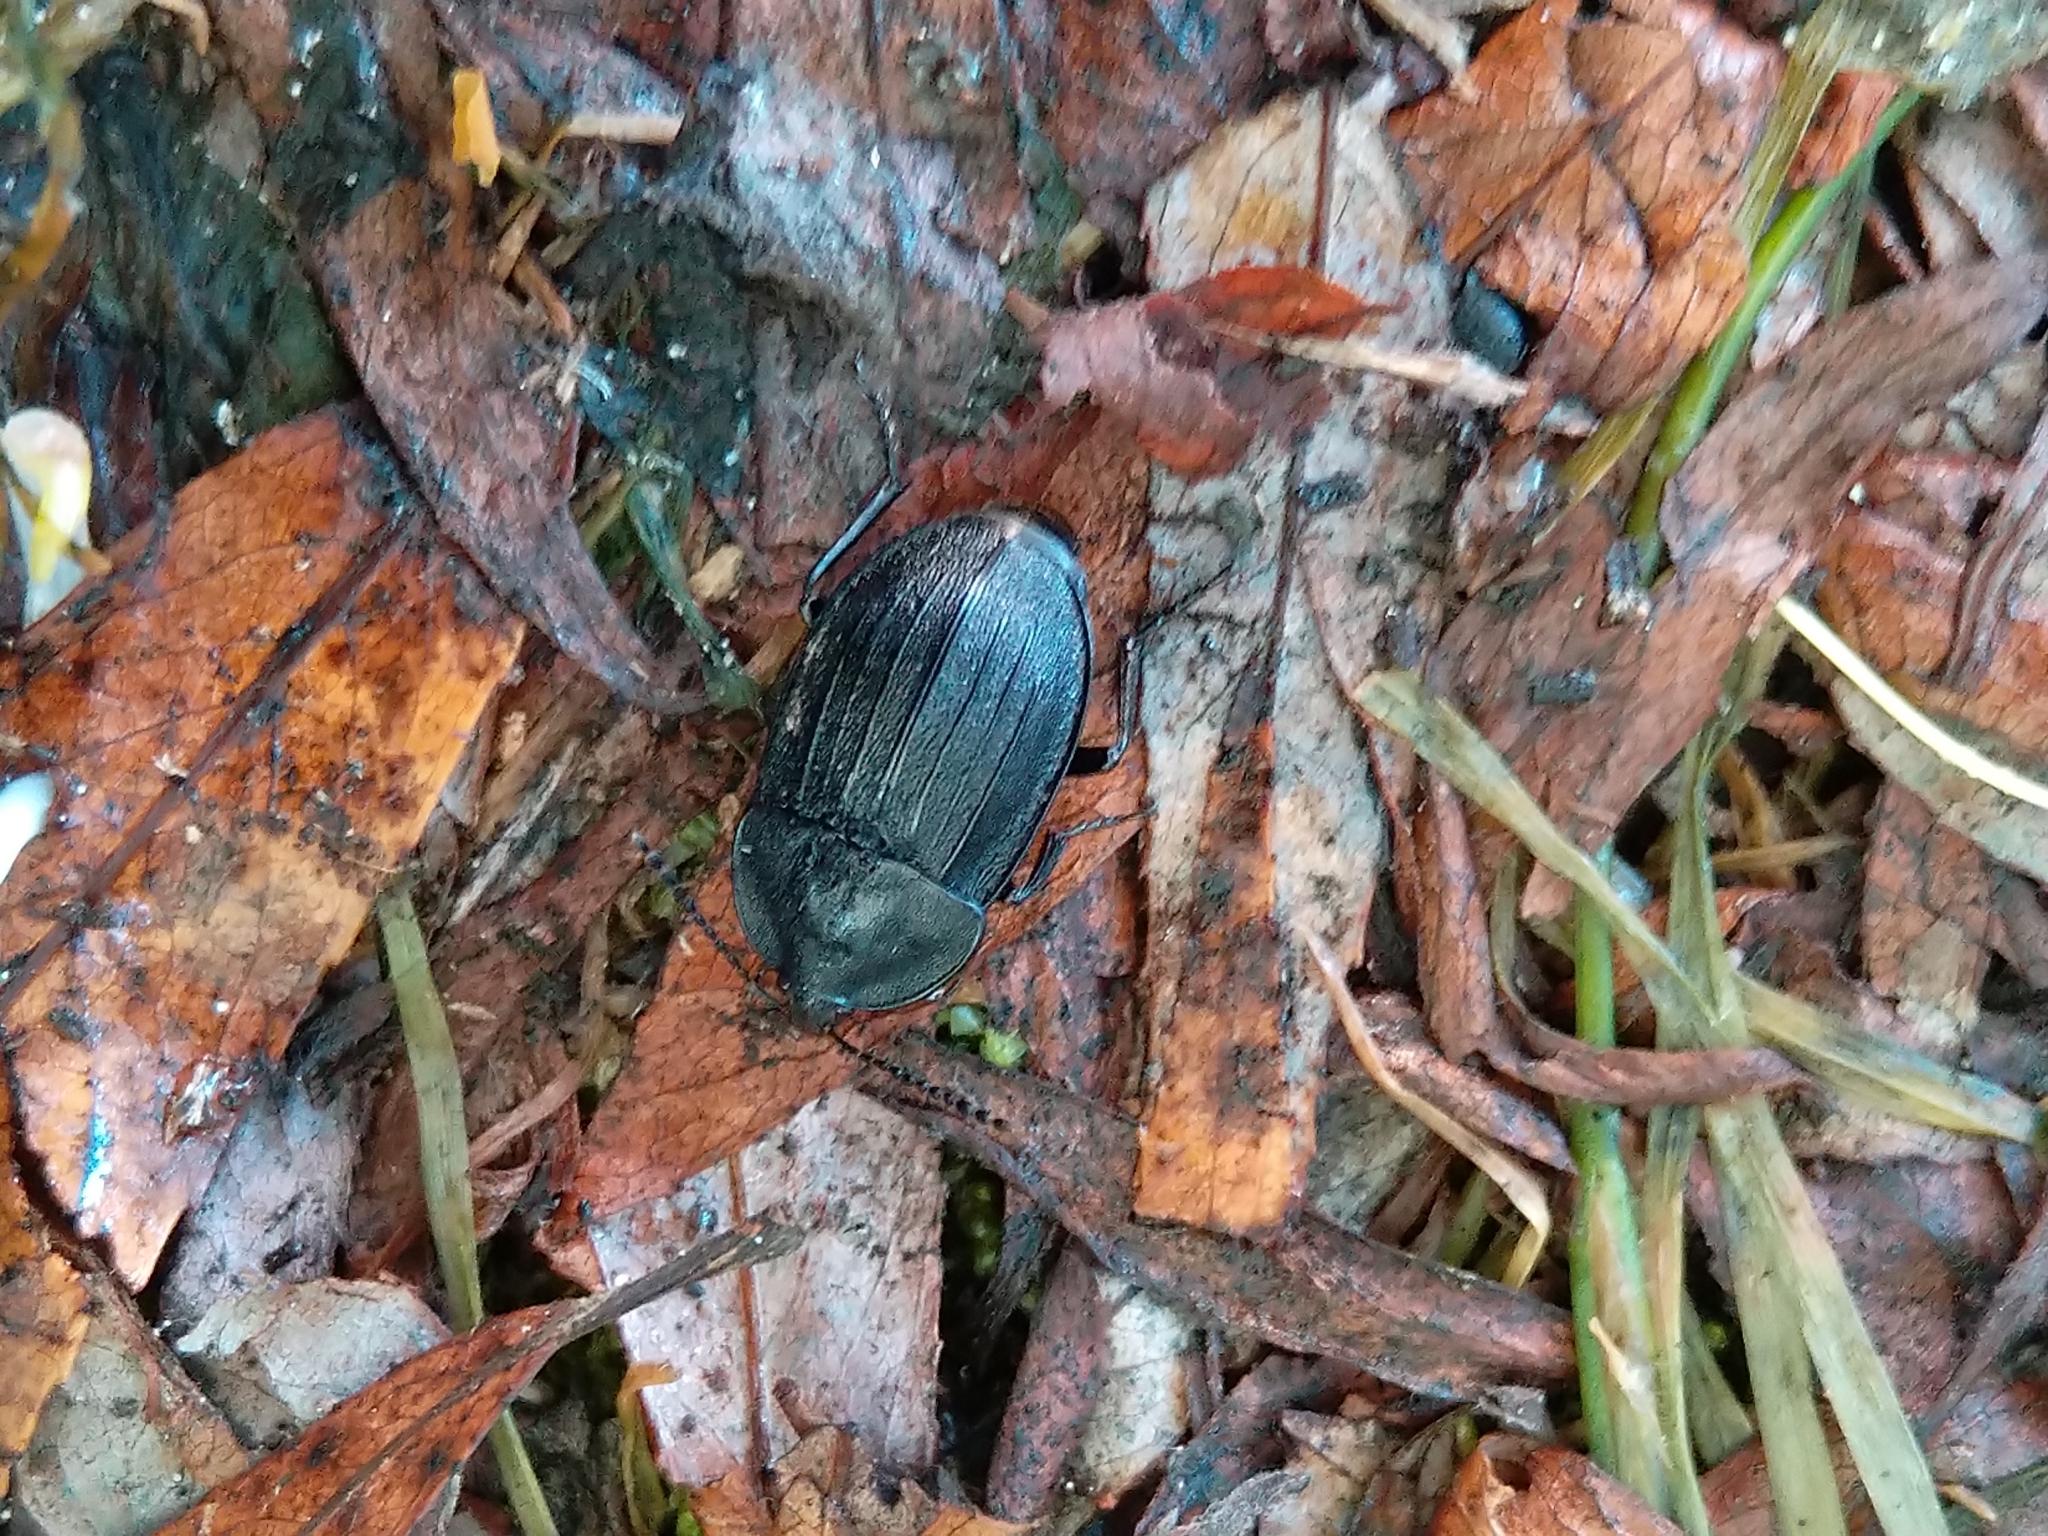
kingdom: Animalia
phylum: Arthropoda
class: Insecta
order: Coleoptera
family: Staphylinidae
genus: Silpha
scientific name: Silpha atrata
